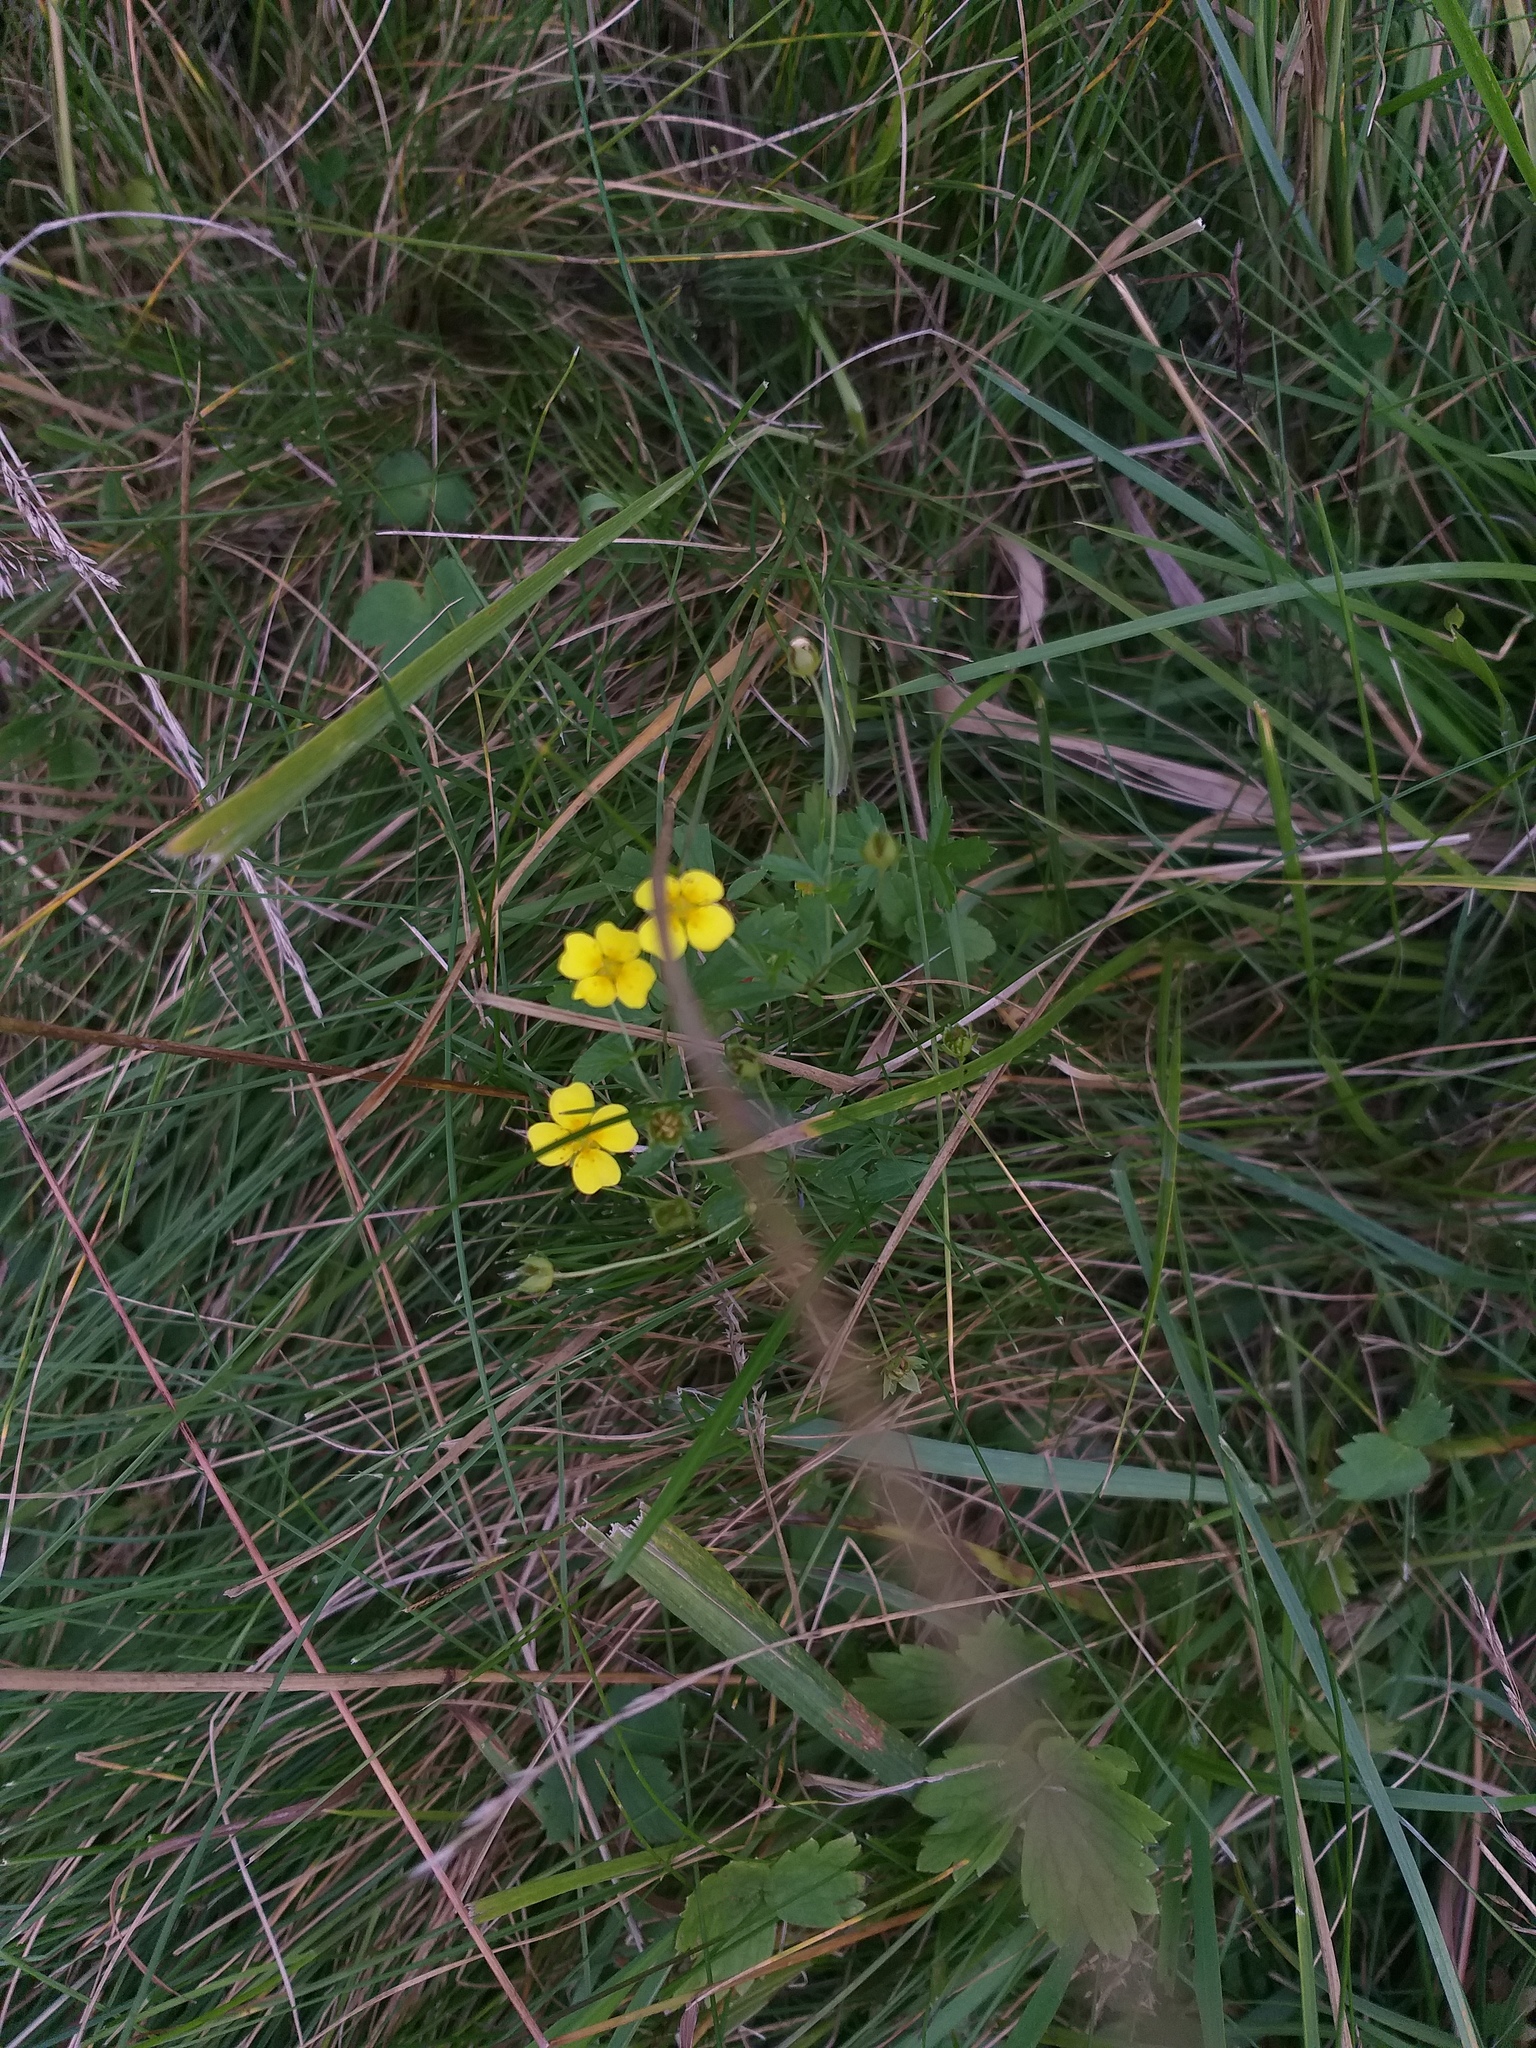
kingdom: Plantae
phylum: Tracheophyta
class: Magnoliopsida
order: Rosales
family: Rosaceae
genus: Potentilla
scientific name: Potentilla erecta
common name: Tormentil
